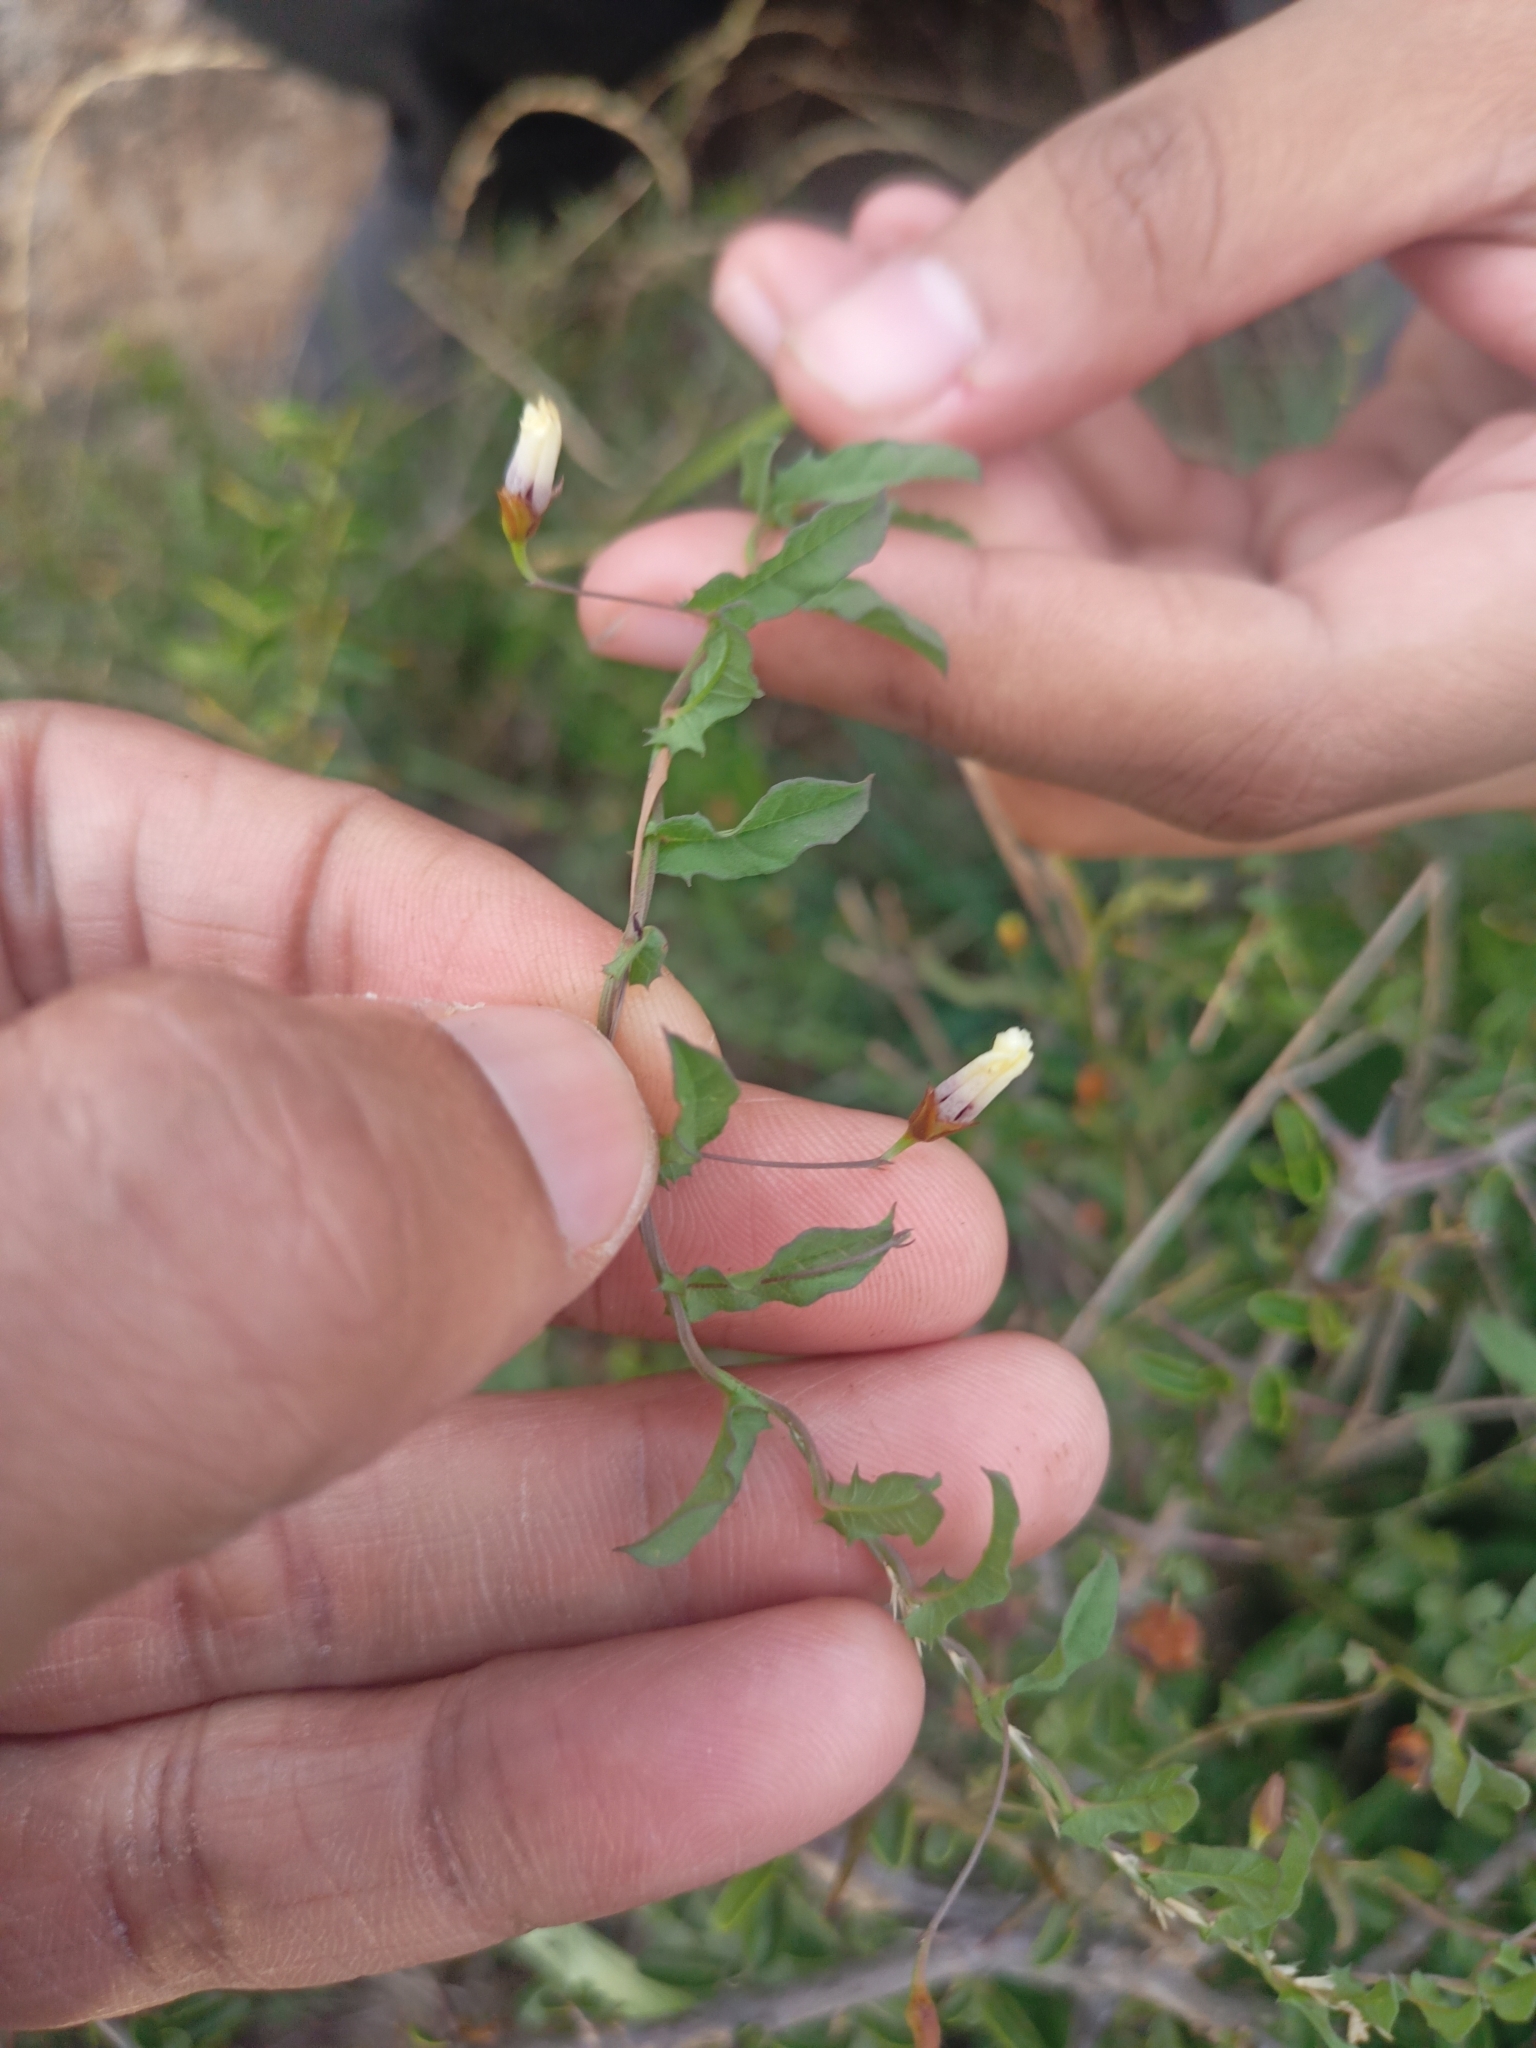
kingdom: Plantae
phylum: Tracheophyta
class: Magnoliopsida
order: Solanales
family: Convolvulaceae
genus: Xenostegia
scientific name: Xenostegia tridentata
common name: African morningvine
